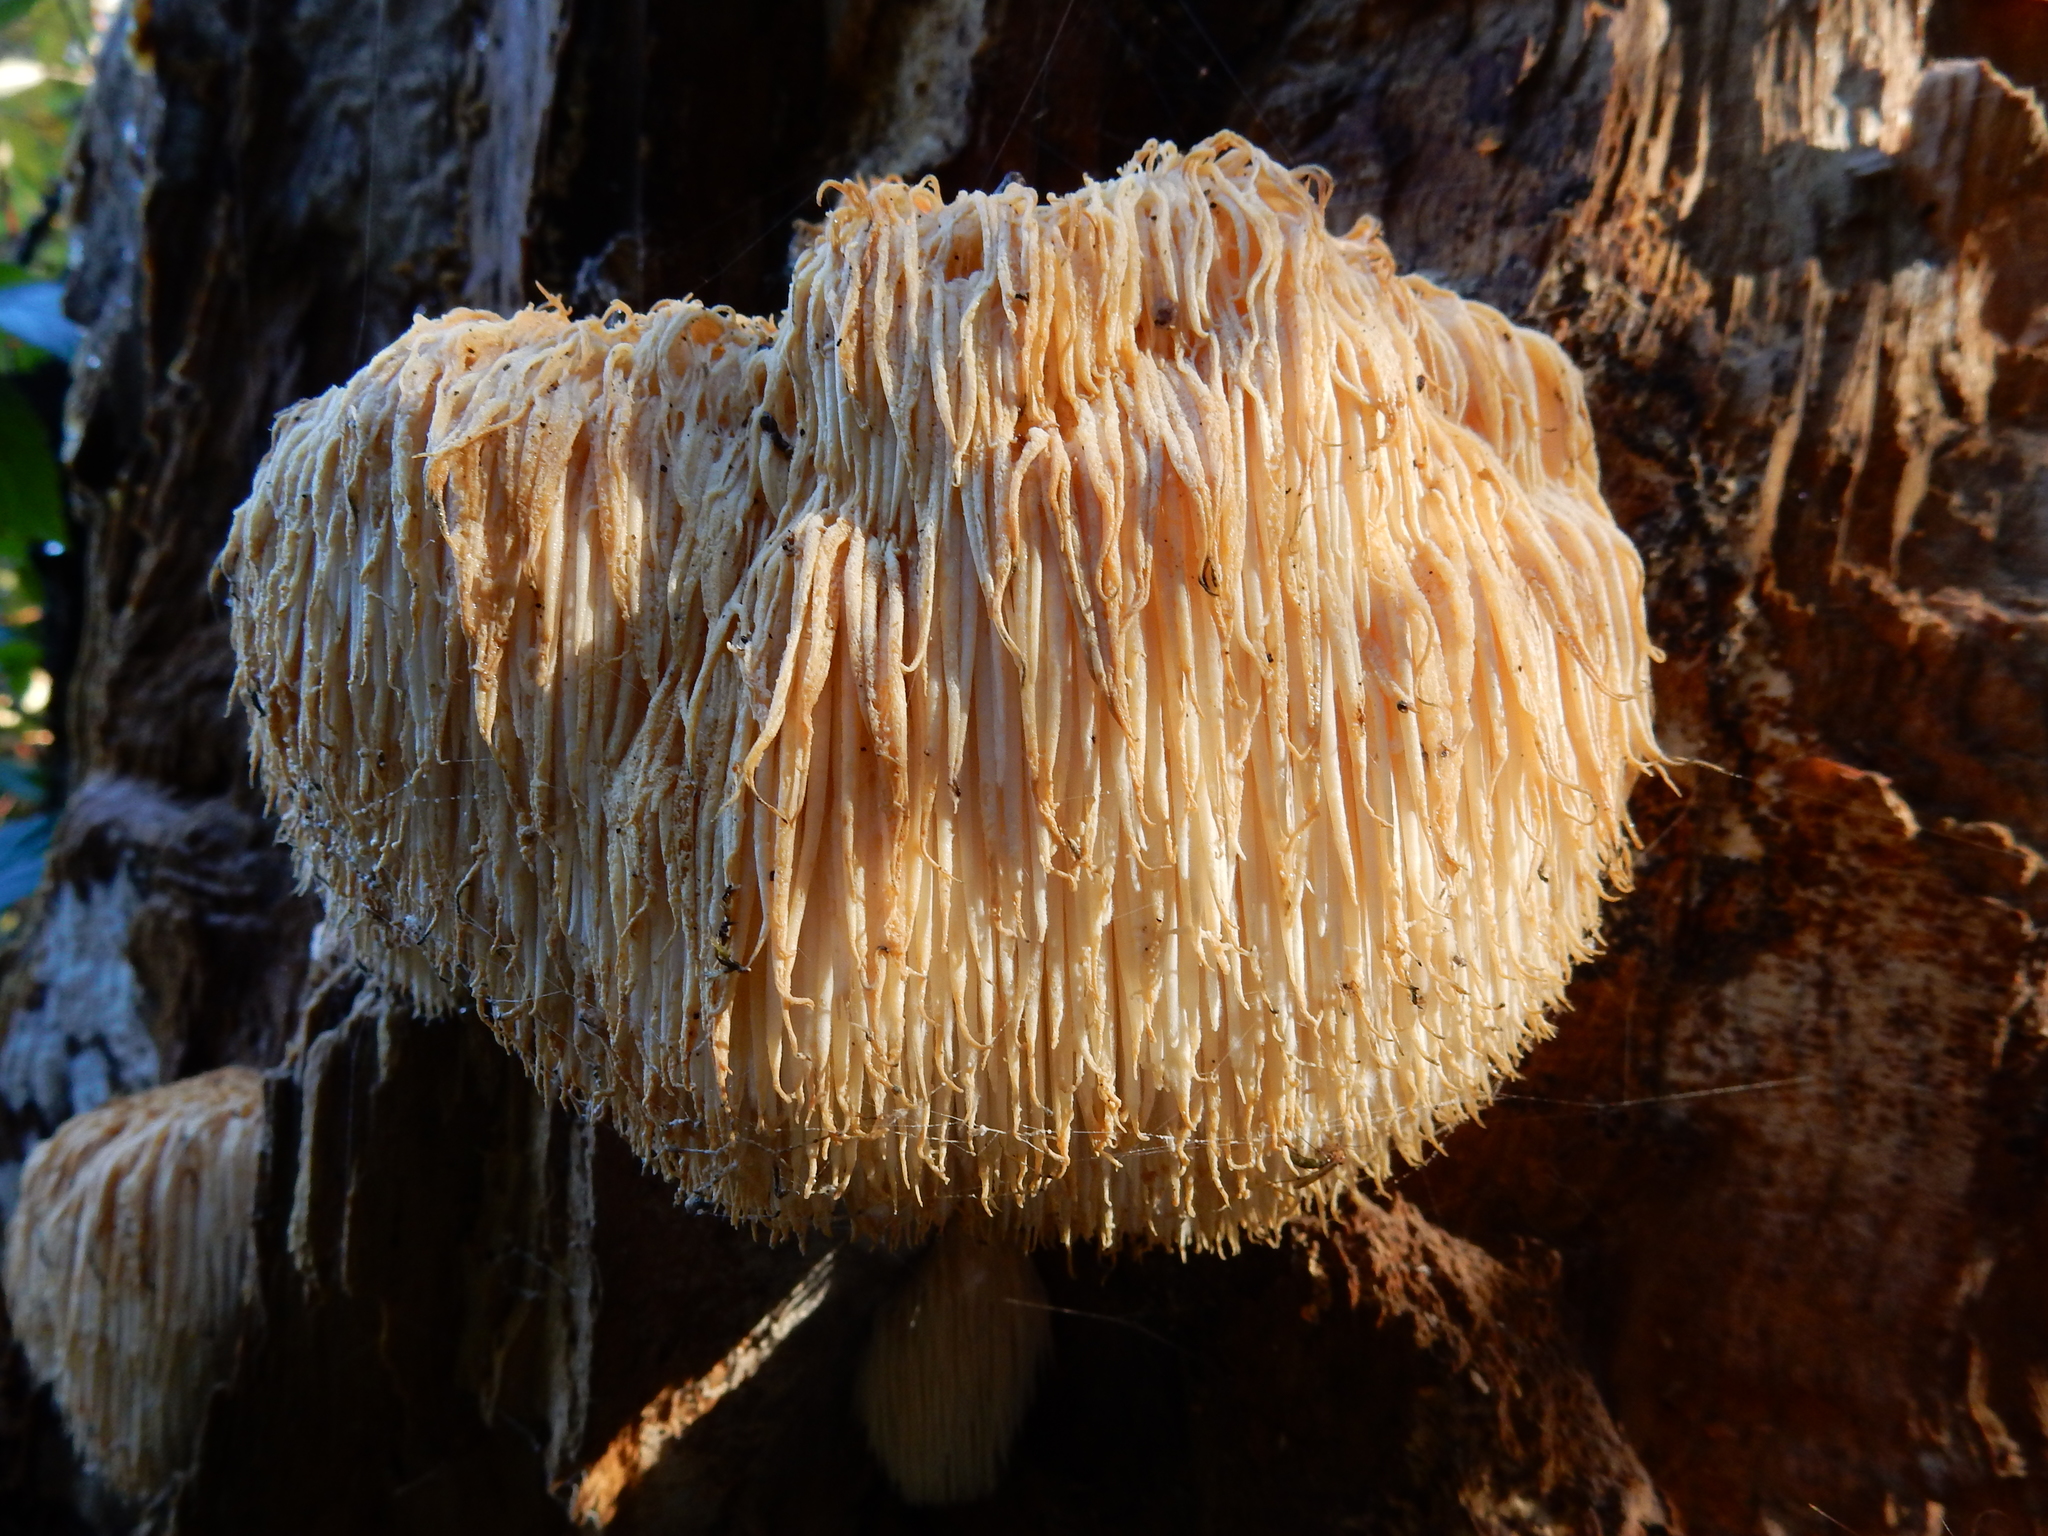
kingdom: Fungi
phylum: Basidiomycota
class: Agaricomycetes
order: Russulales
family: Hericiaceae
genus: Hericium
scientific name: Hericium novae-zealandiae
